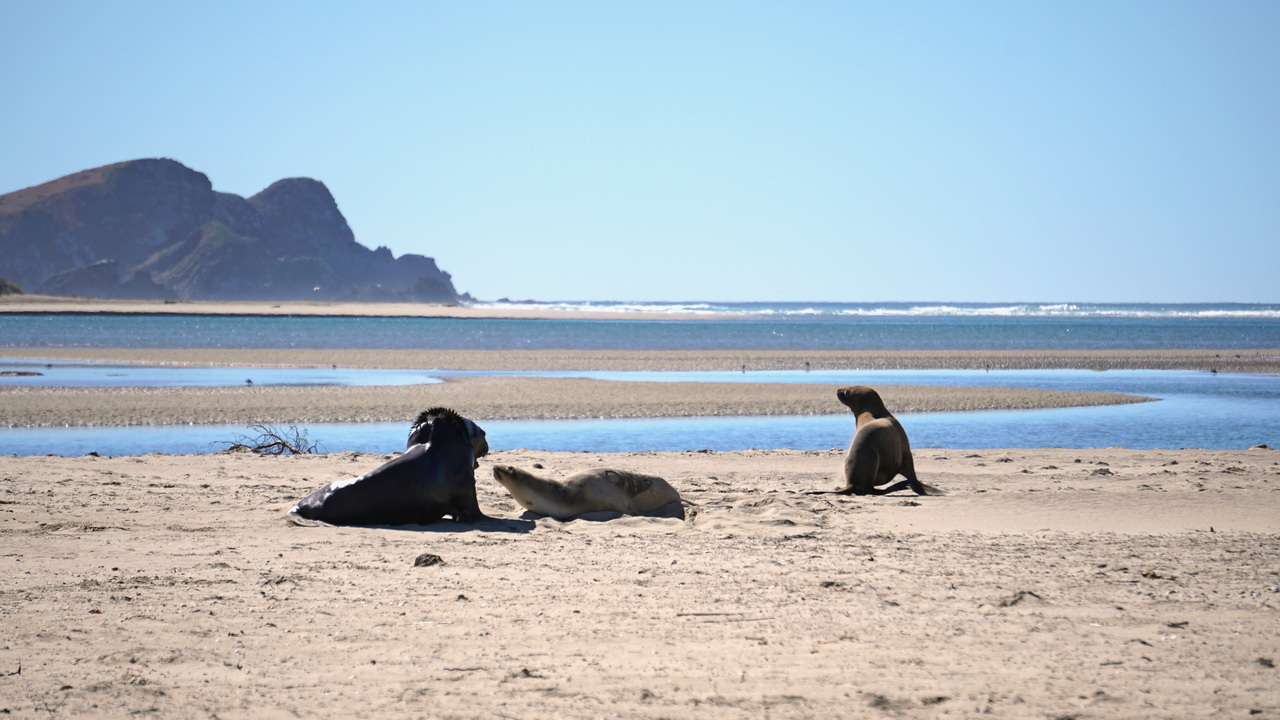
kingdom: Animalia
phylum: Chordata
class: Mammalia
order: Carnivora
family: Otariidae
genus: Phocarctos
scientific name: Phocarctos hookeri
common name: New zealand sea lion
